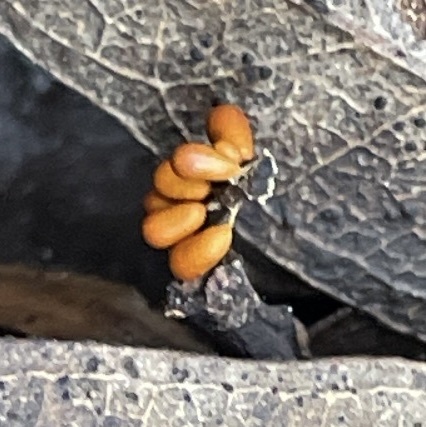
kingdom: Protozoa
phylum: Mycetozoa
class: Myxomycetes
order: Physarales
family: Physaraceae
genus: Leocarpus
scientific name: Leocarpus fragilis
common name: Insect-egg slime
